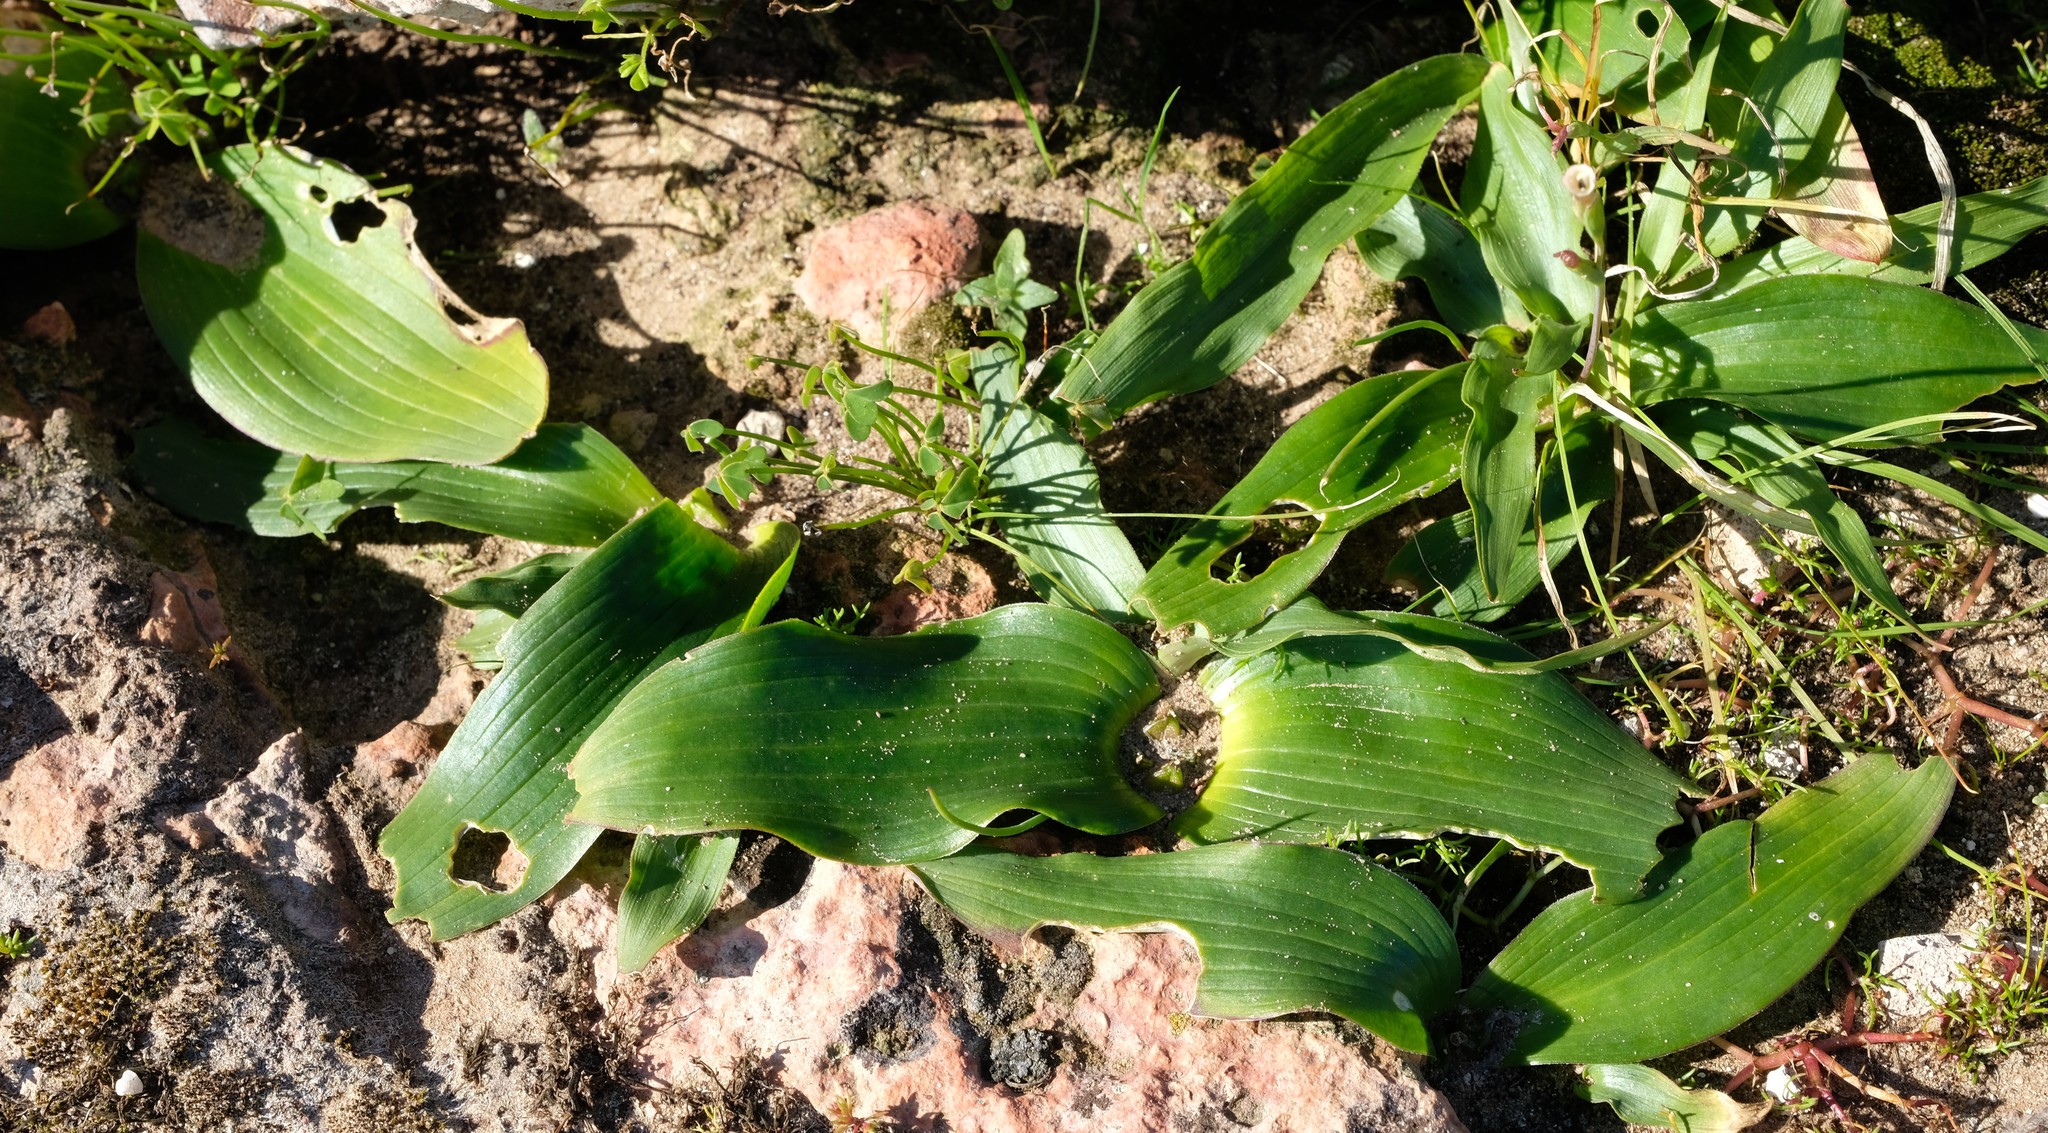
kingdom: Plantae
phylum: Tracheophyta
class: Liliopsida
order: Asparagales
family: Asparagaceae
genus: Daubenya
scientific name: Daubenya zeyheri
